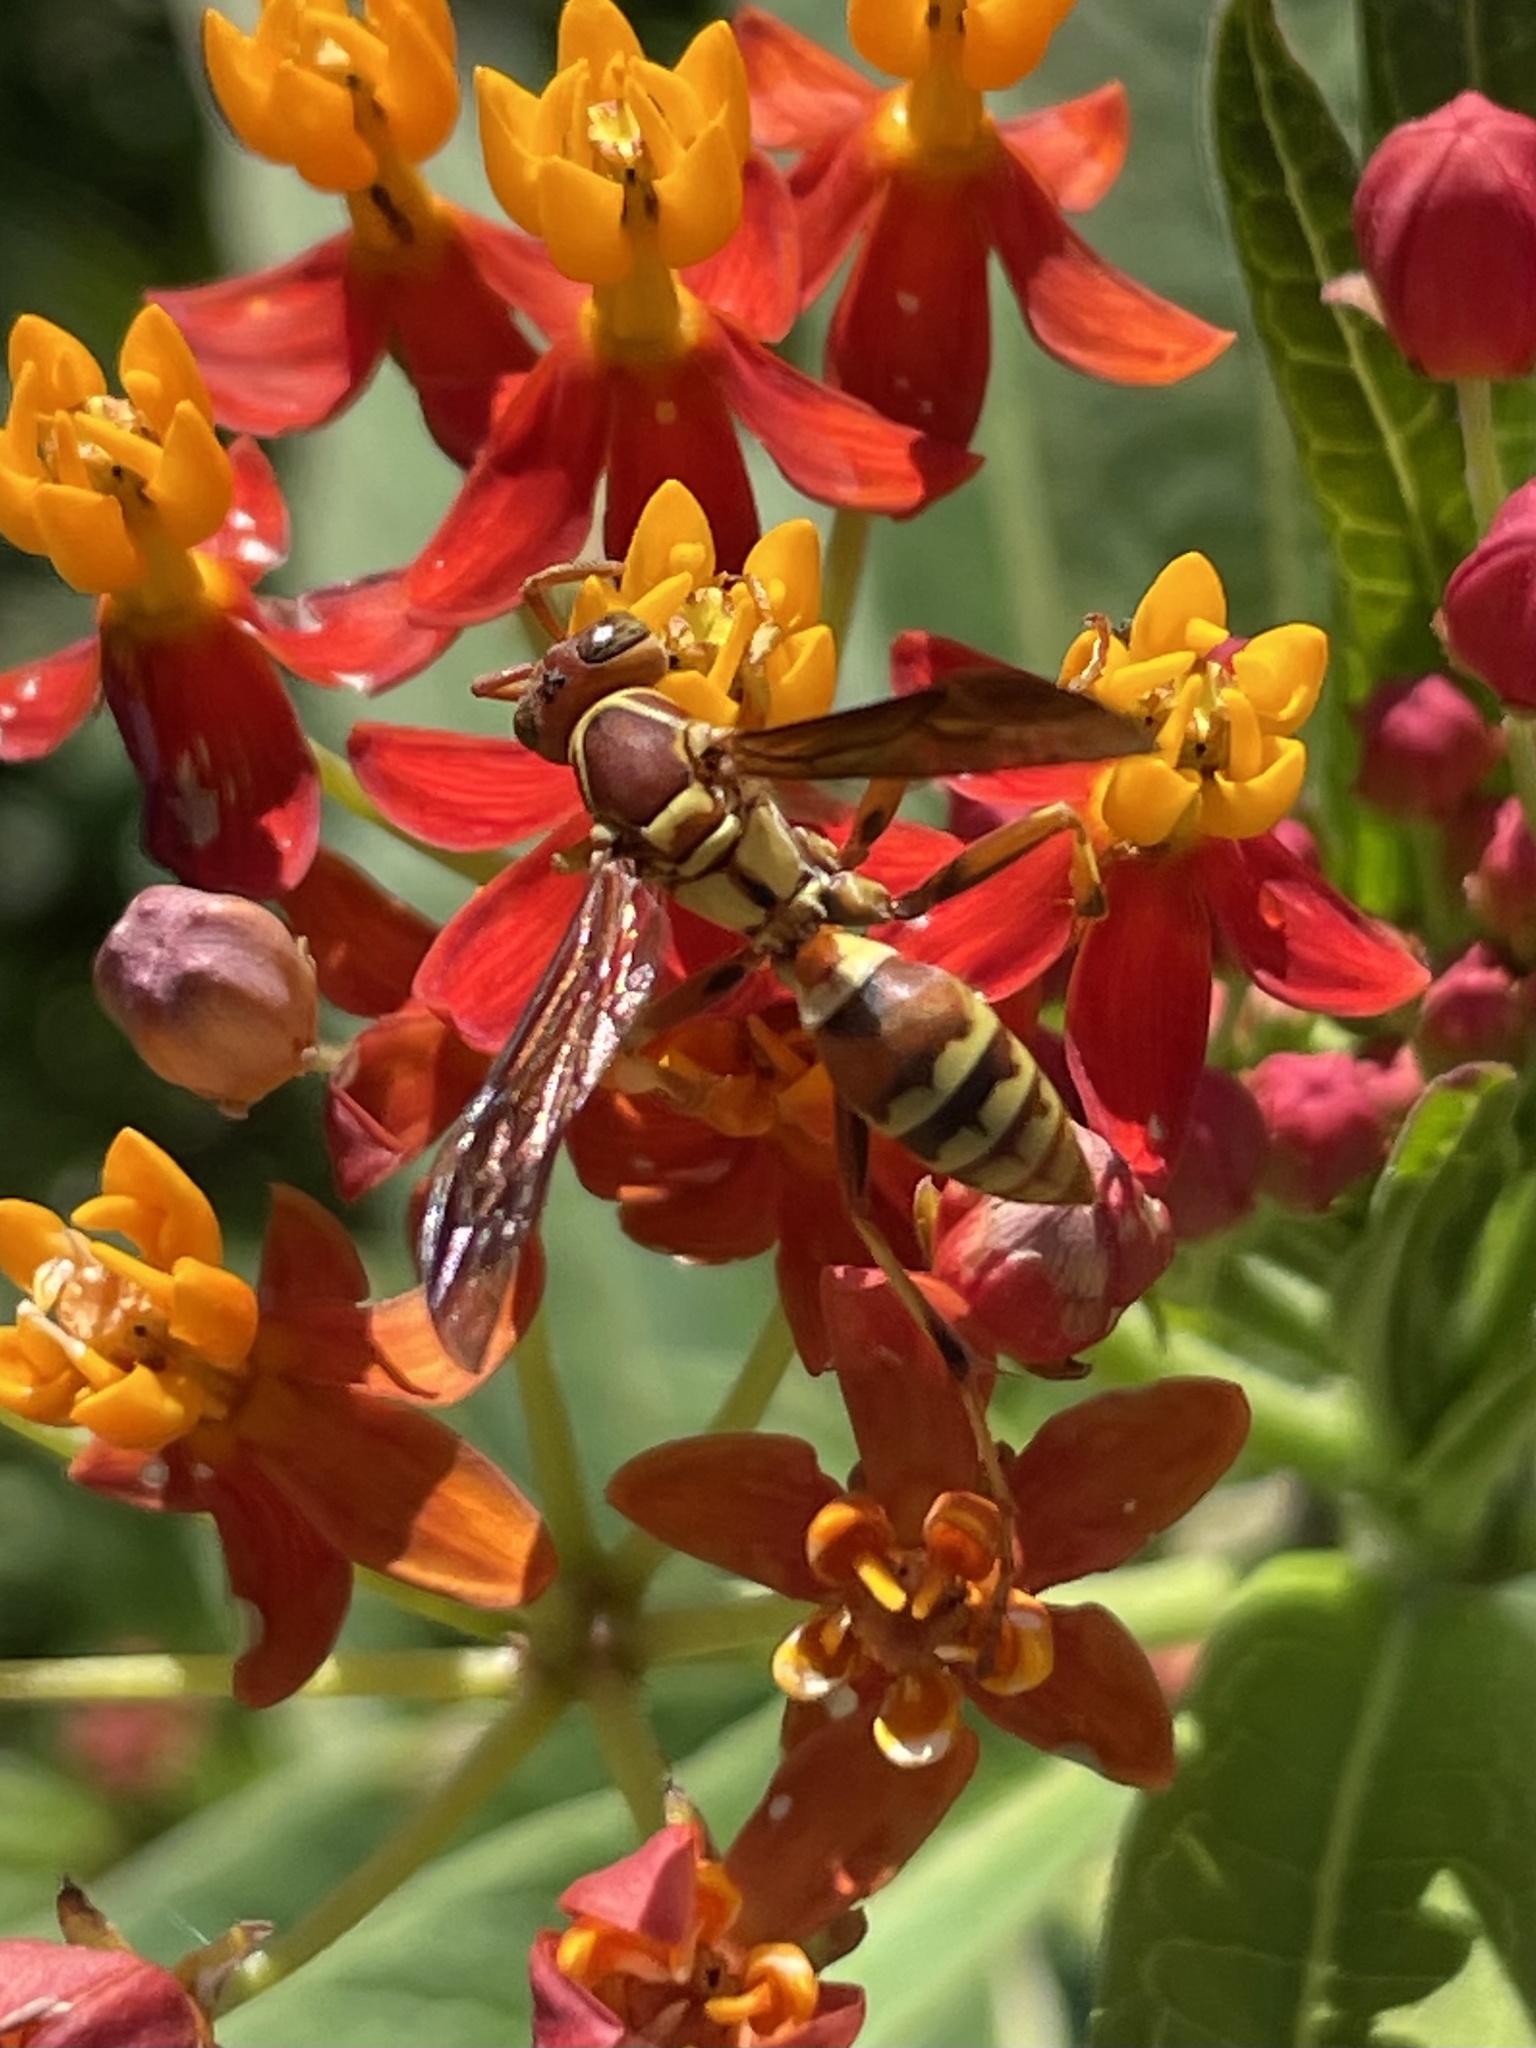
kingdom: Animalia
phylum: Arthropoda
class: Insecta
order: Hymenoptera
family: Eumenidae
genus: Polistes
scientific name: Polistes exclamans
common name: Paper wasp
